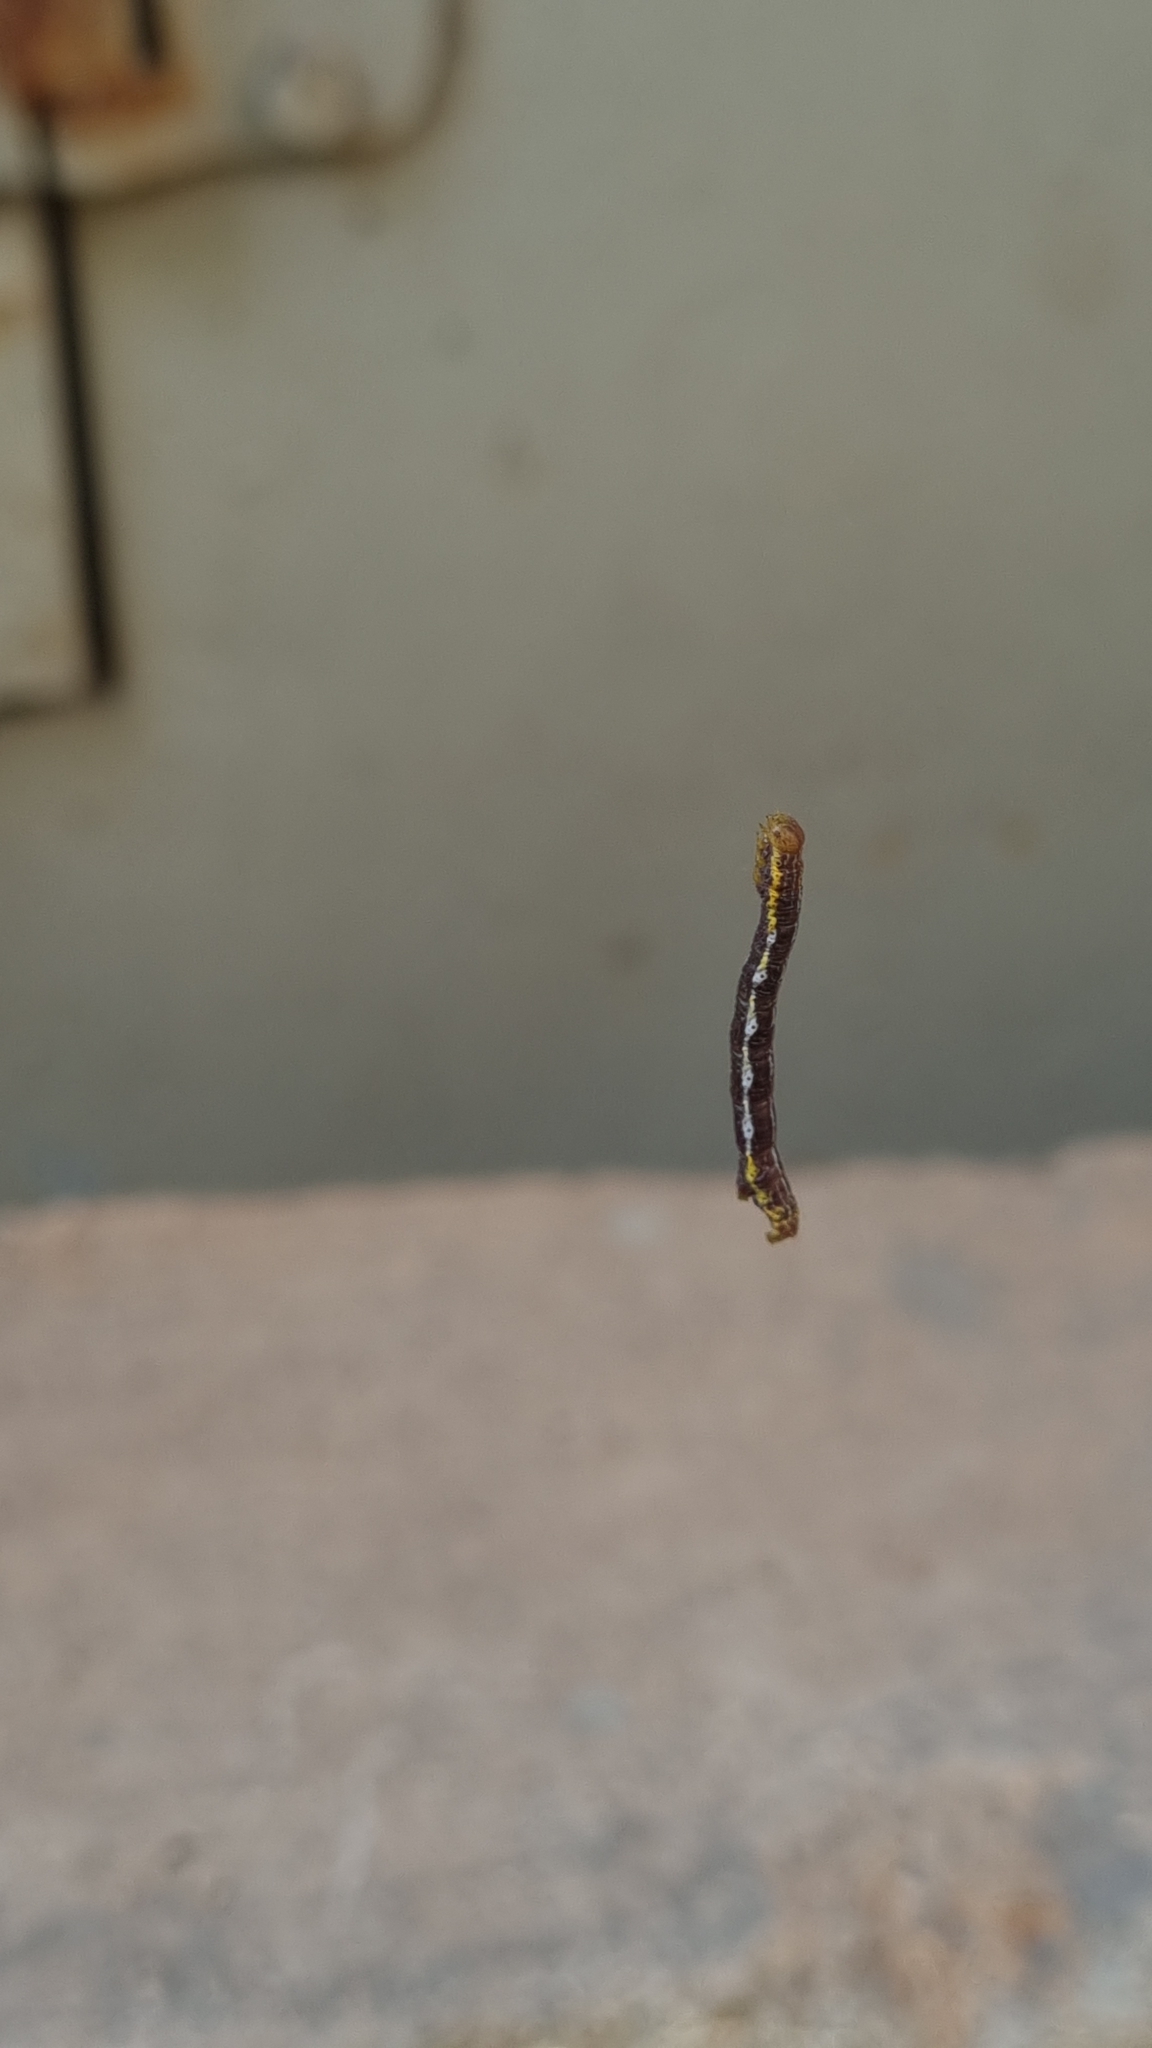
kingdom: Animalia
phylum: Arthropoda
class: Insecta
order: Lepidoptera
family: Geometridae
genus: Chiasmia
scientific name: Chiasmia emersaria
